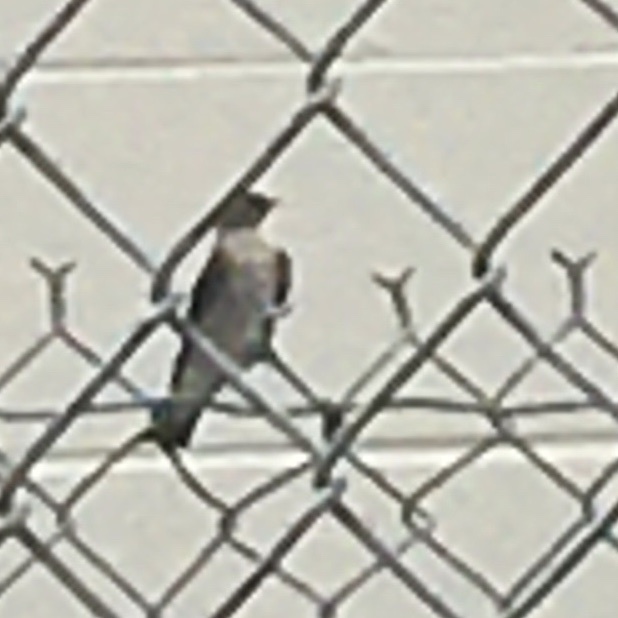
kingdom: Animalia
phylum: Chordata
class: Aves
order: Passeriformes
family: Hirundinidae
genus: Stelgidopteryx
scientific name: Stelgidopteryx serripennis
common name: Northern rough-winged swallow
